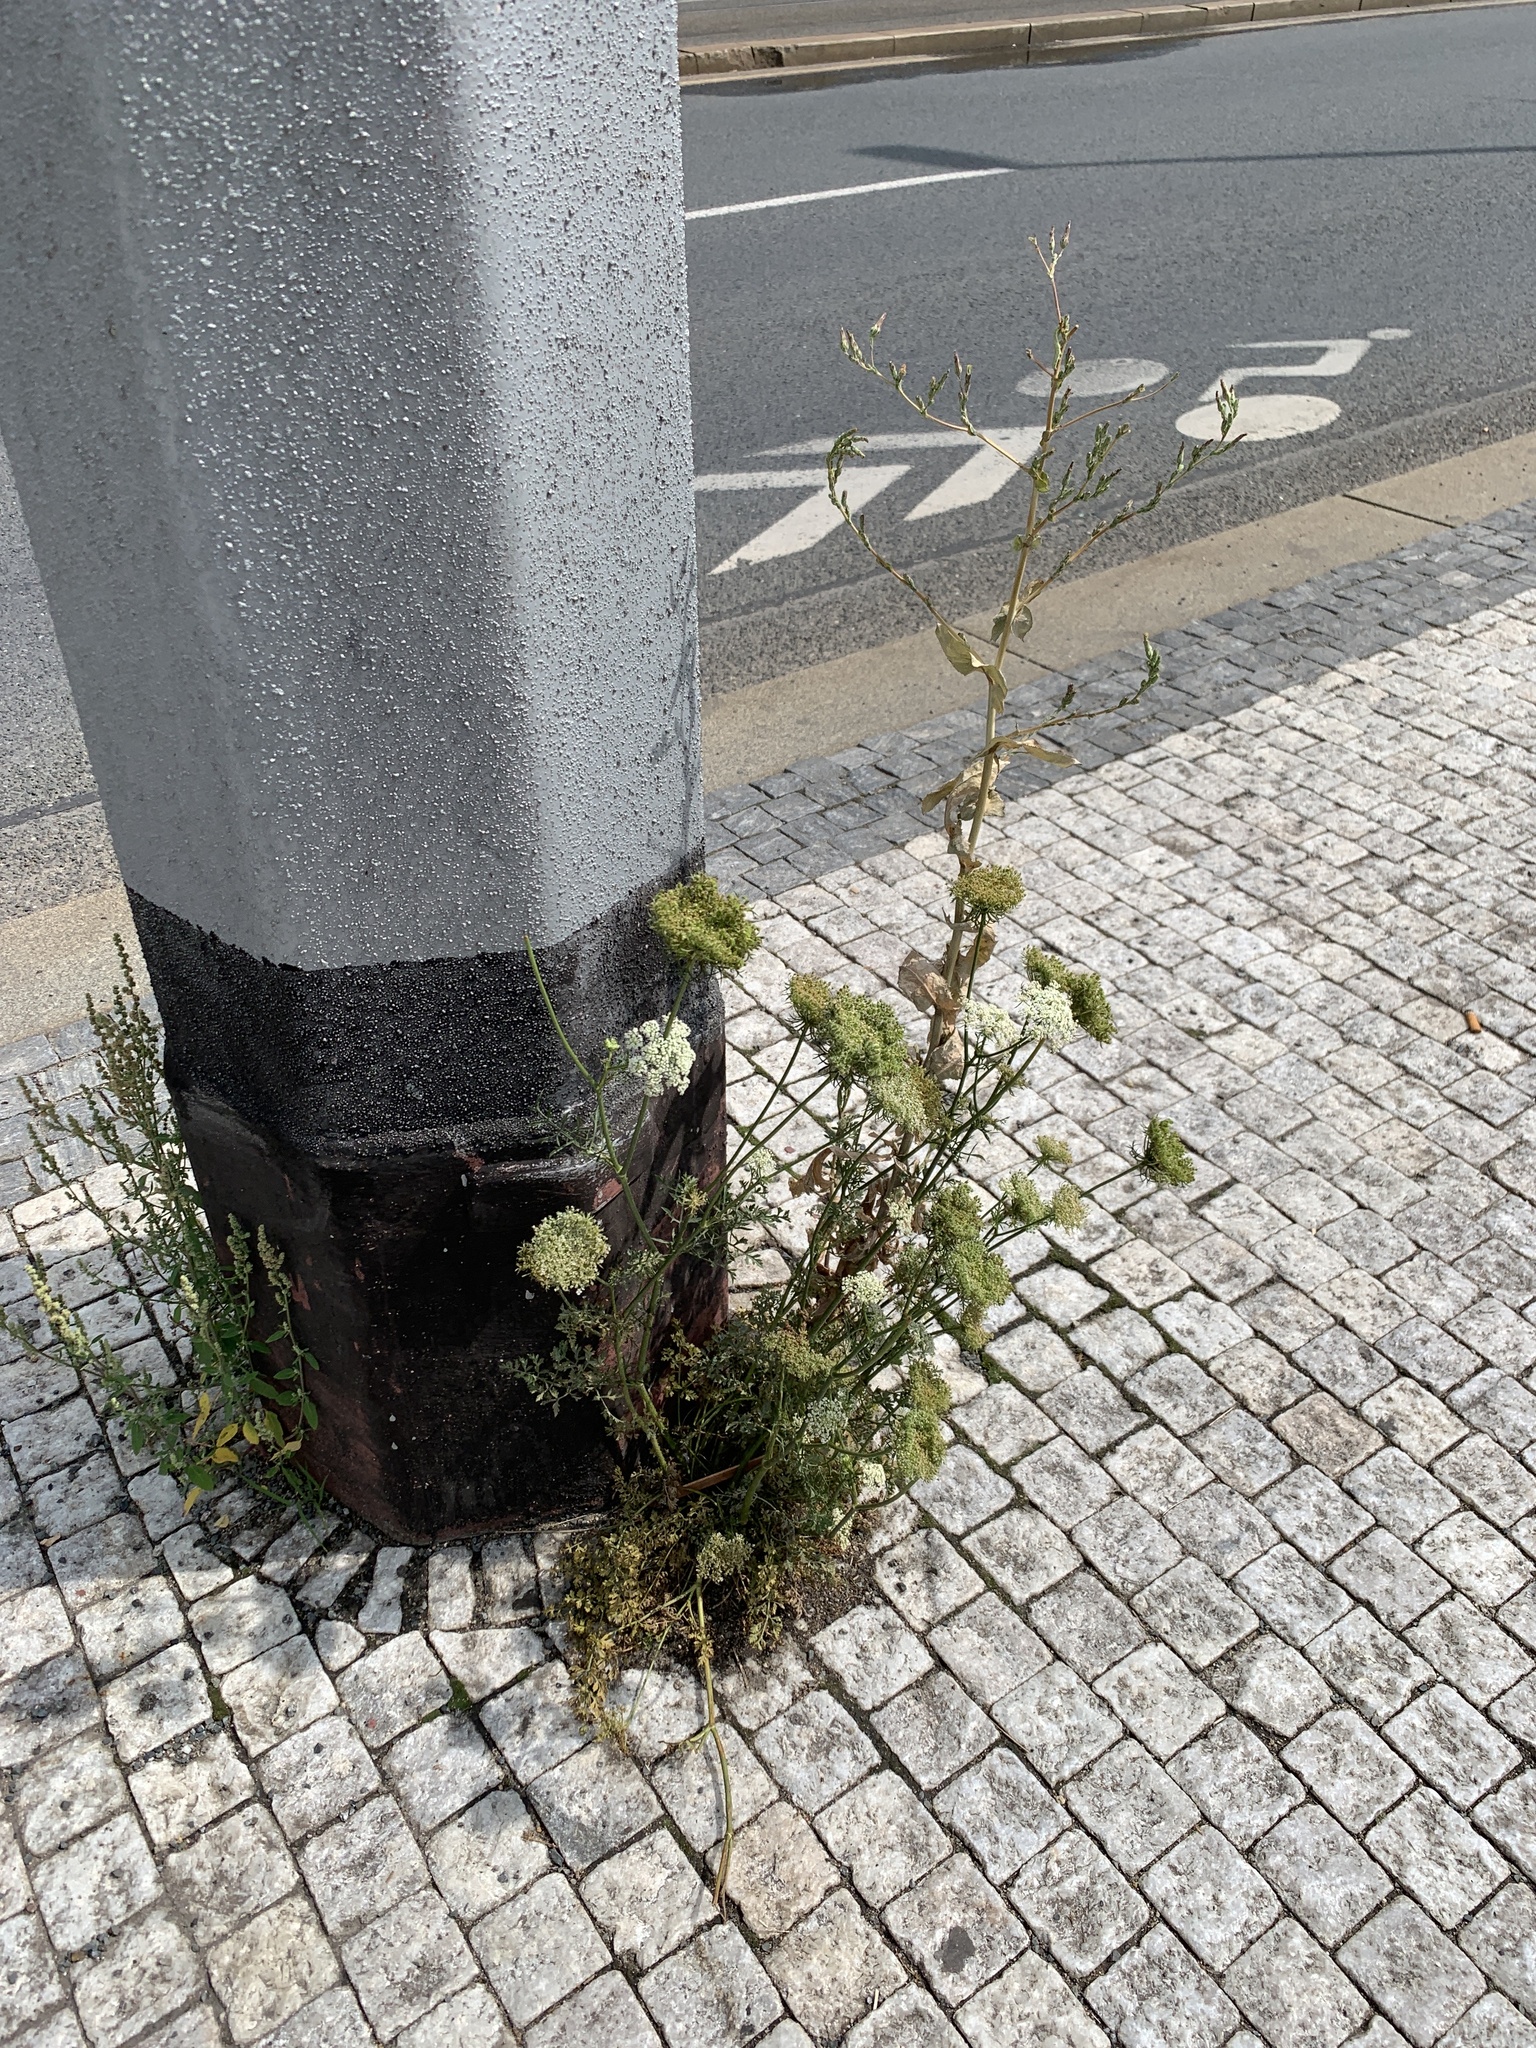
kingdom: Plantae
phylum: Tracheophyta
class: Magnoliopsida
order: Apiales
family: Apiaceae
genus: Daucus
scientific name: Daucus carota
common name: Wild carrot
